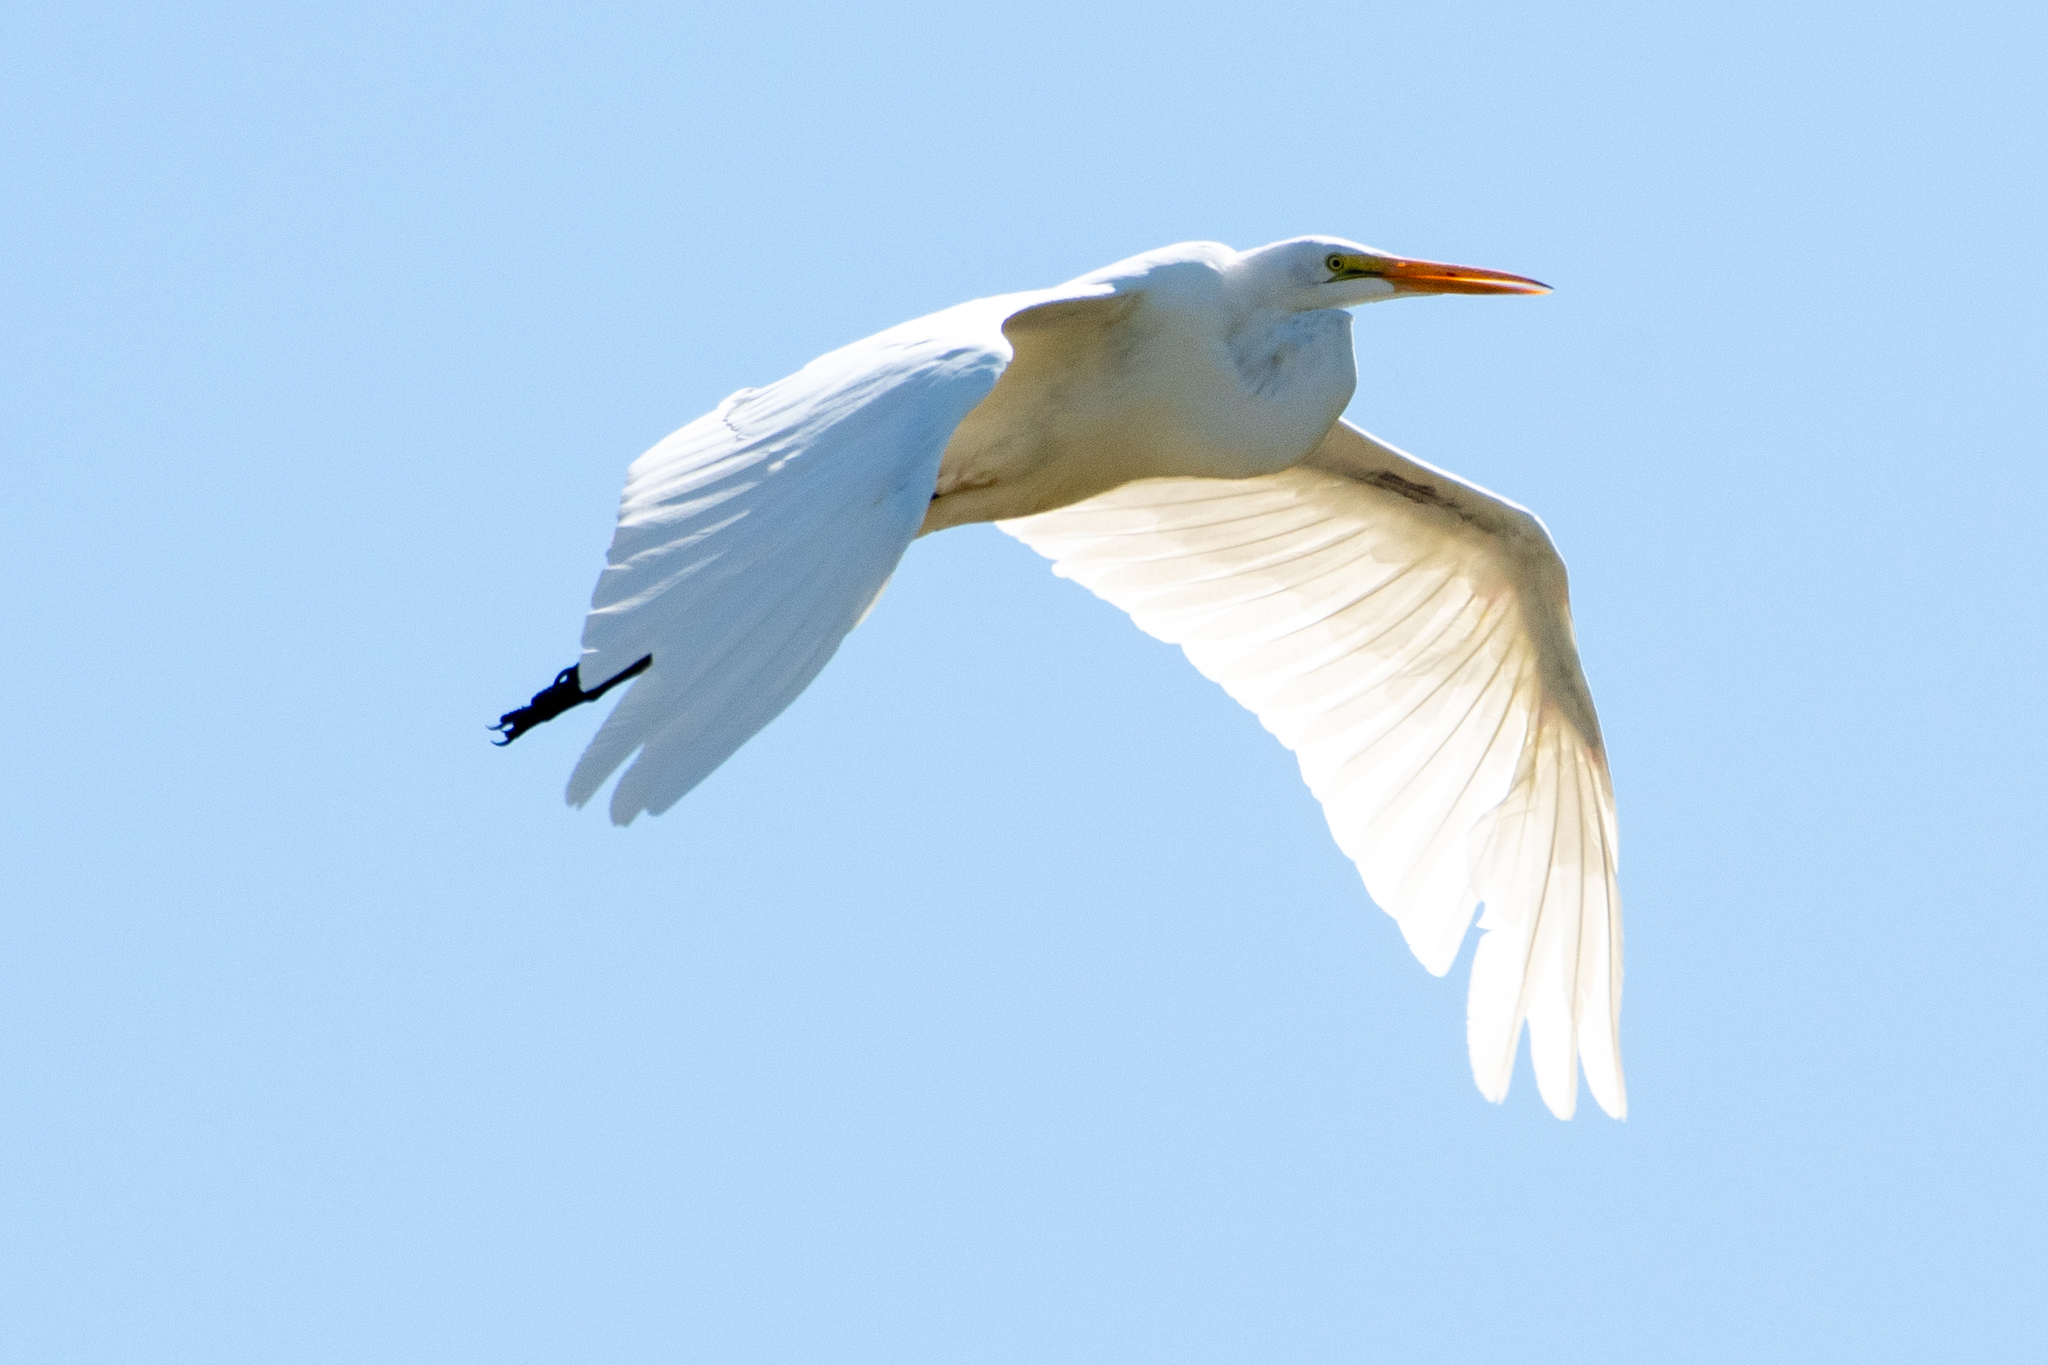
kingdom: Animalia
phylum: Chordata
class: Aves
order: Pelecaniformes
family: Ardeidae
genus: Ardea
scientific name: Ardea alba
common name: Great egret
